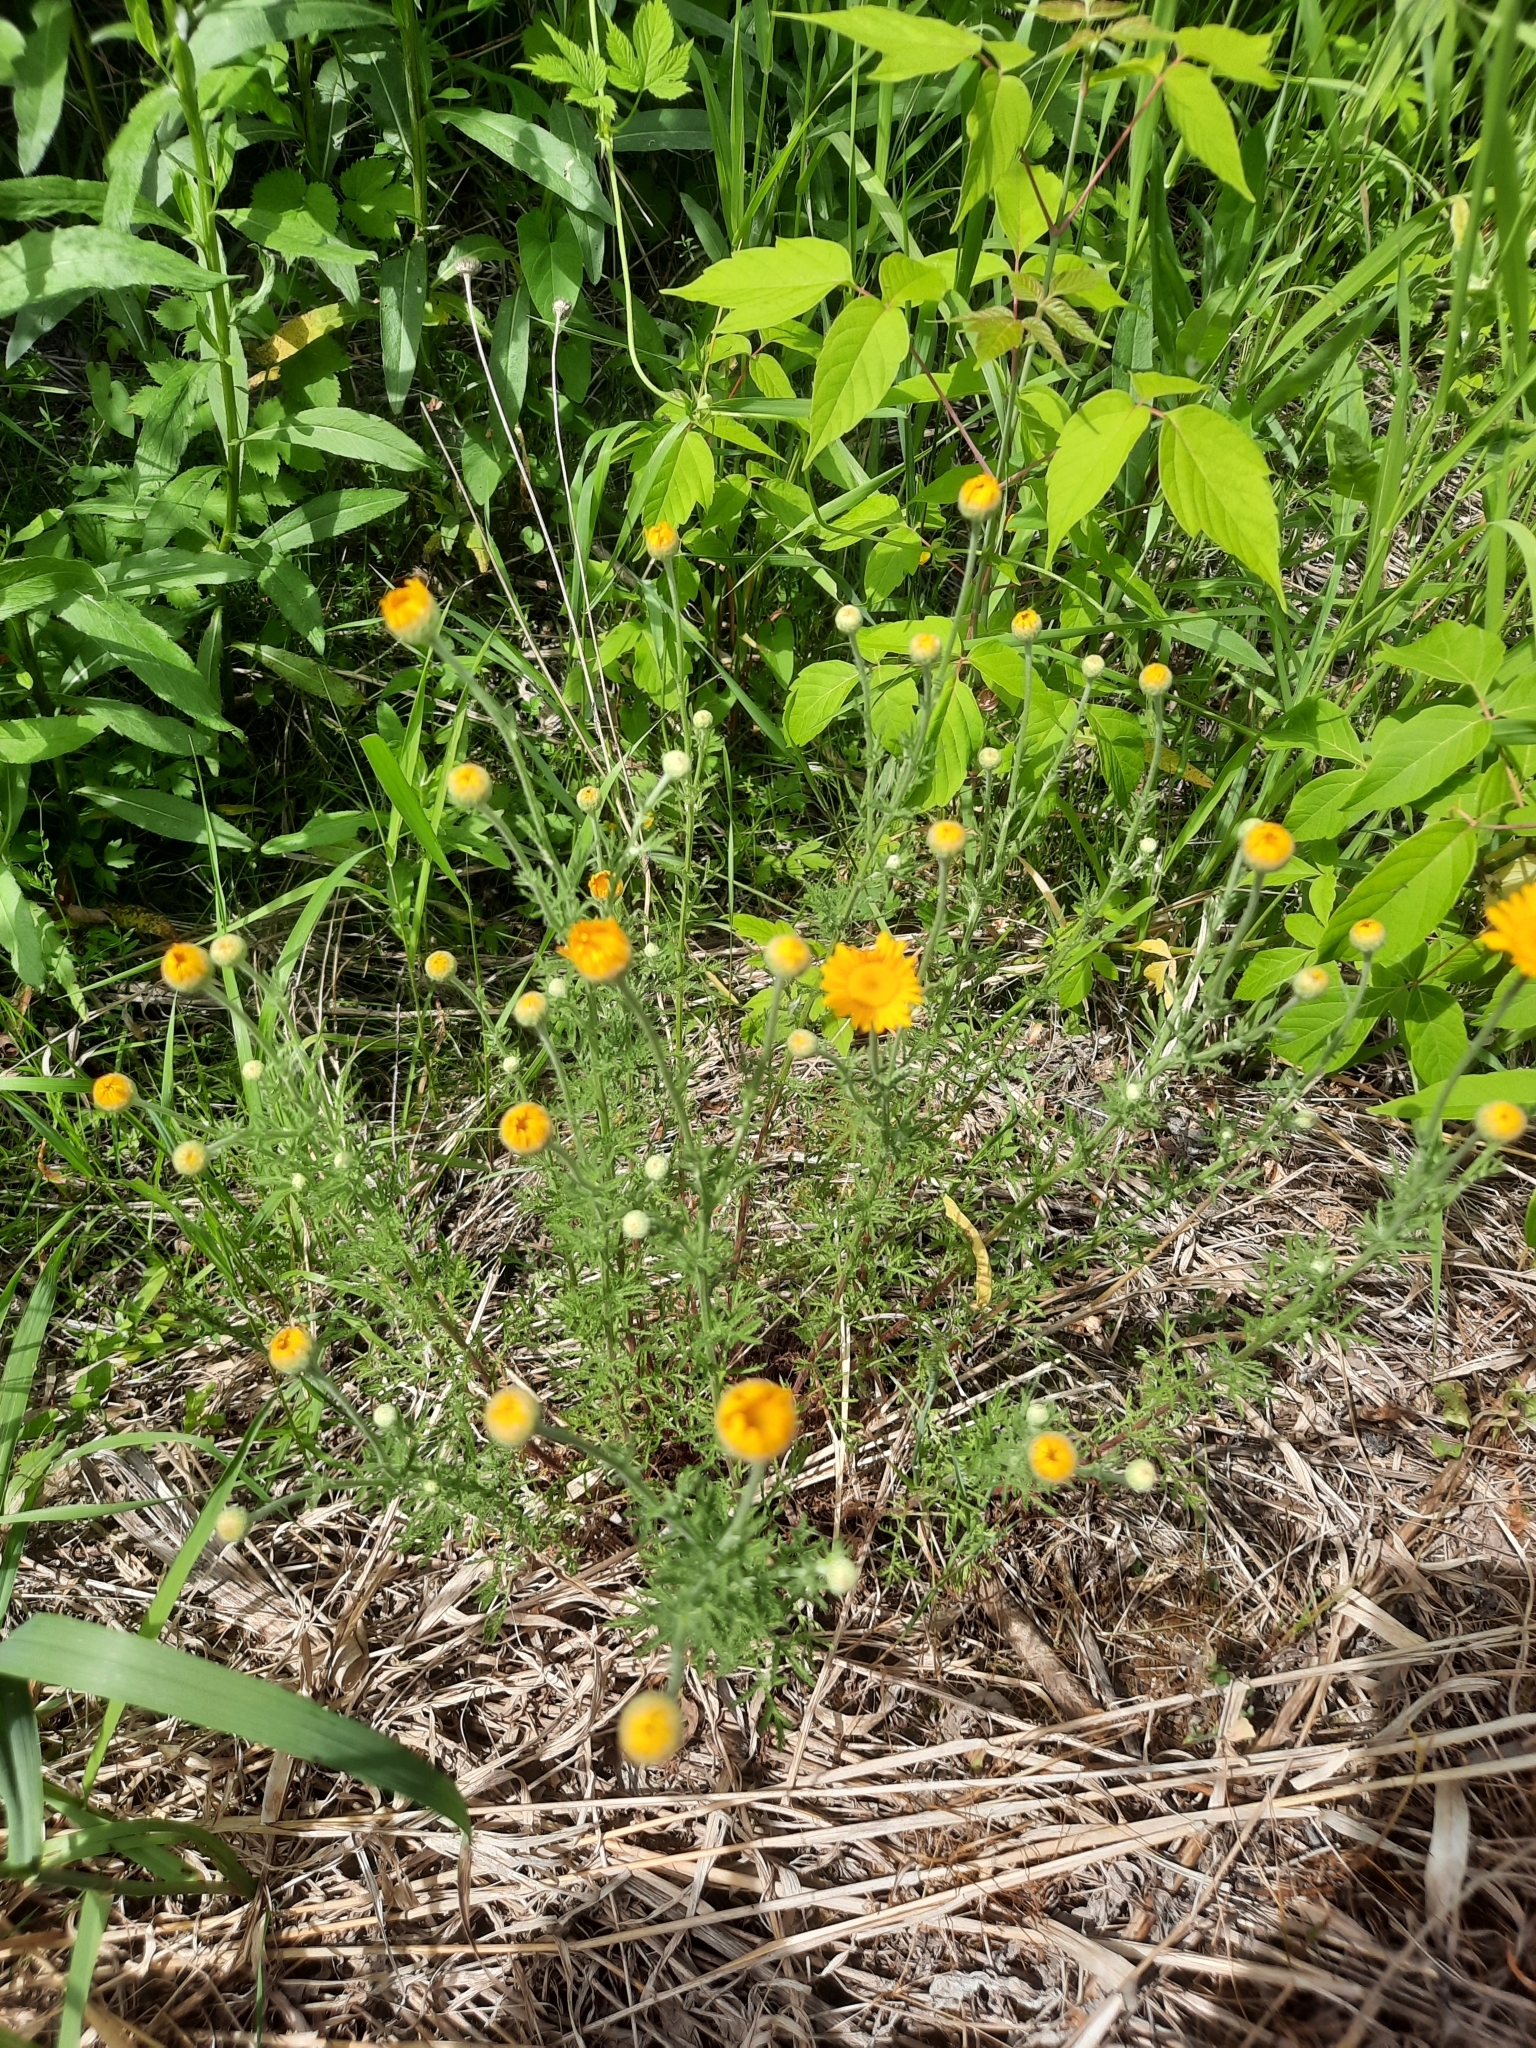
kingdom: Plantae
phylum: Tracheophyta
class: Magnoliopsida
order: Asterales
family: Asteraceae
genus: Cota
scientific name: Cota tinctoria
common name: Golden chamomile
